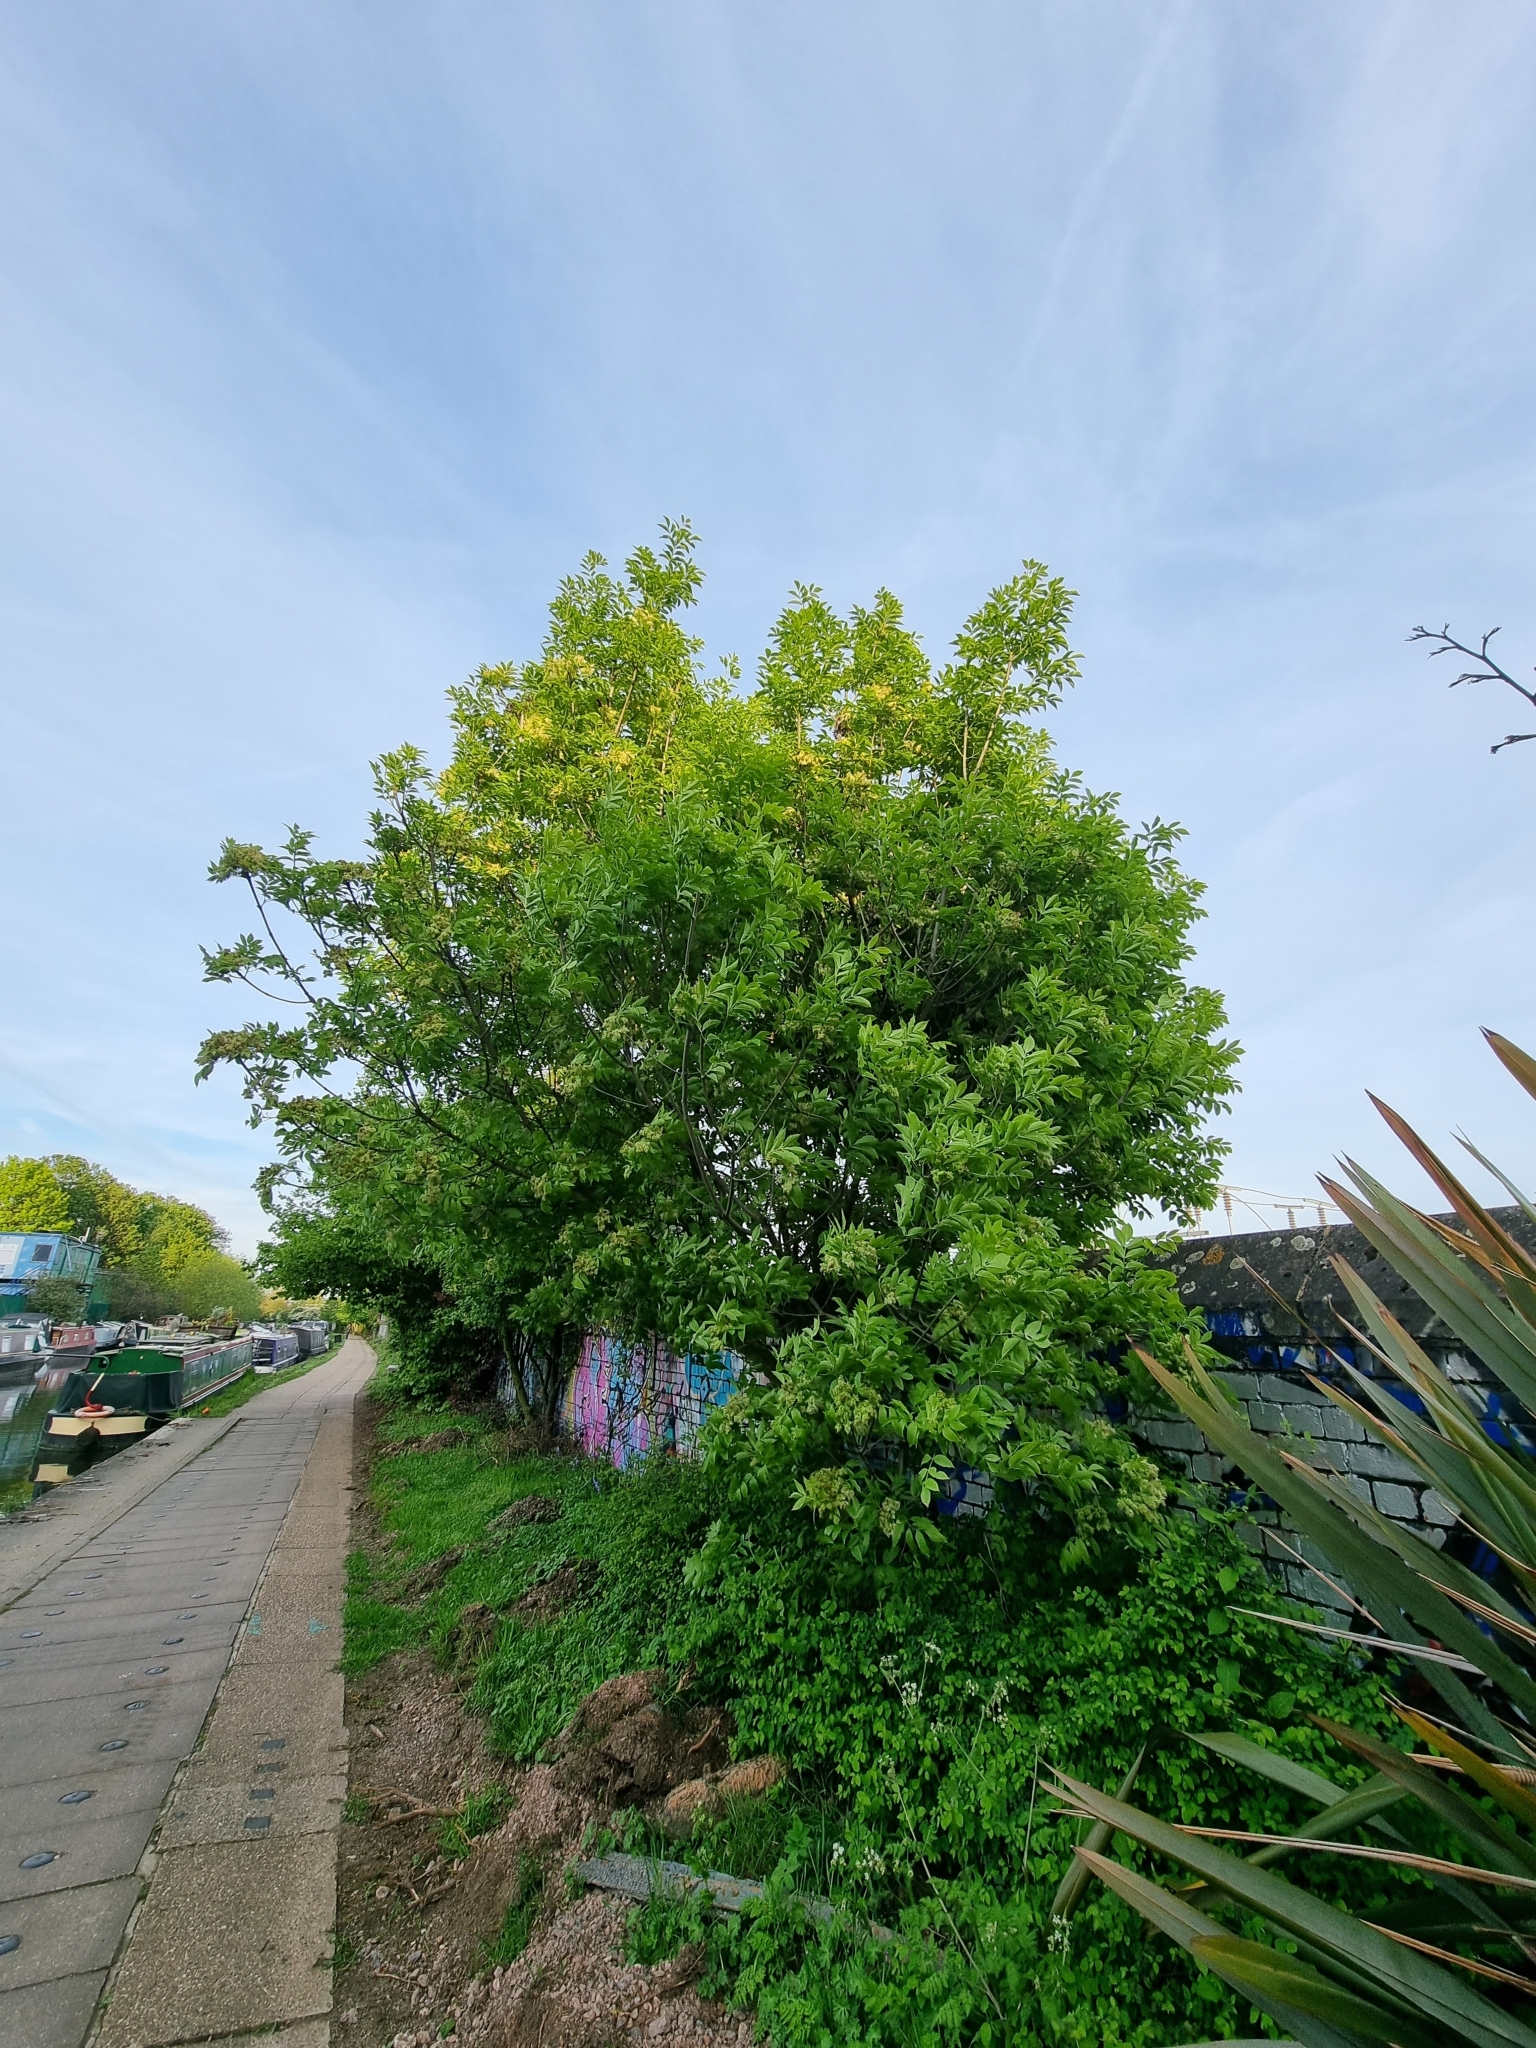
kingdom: Plantae
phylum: Tracheophyta
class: Magnoliopsida
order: Lamiales
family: Oleaceae
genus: Fraxinus
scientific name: Fraxinus ornus
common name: Manna ash
